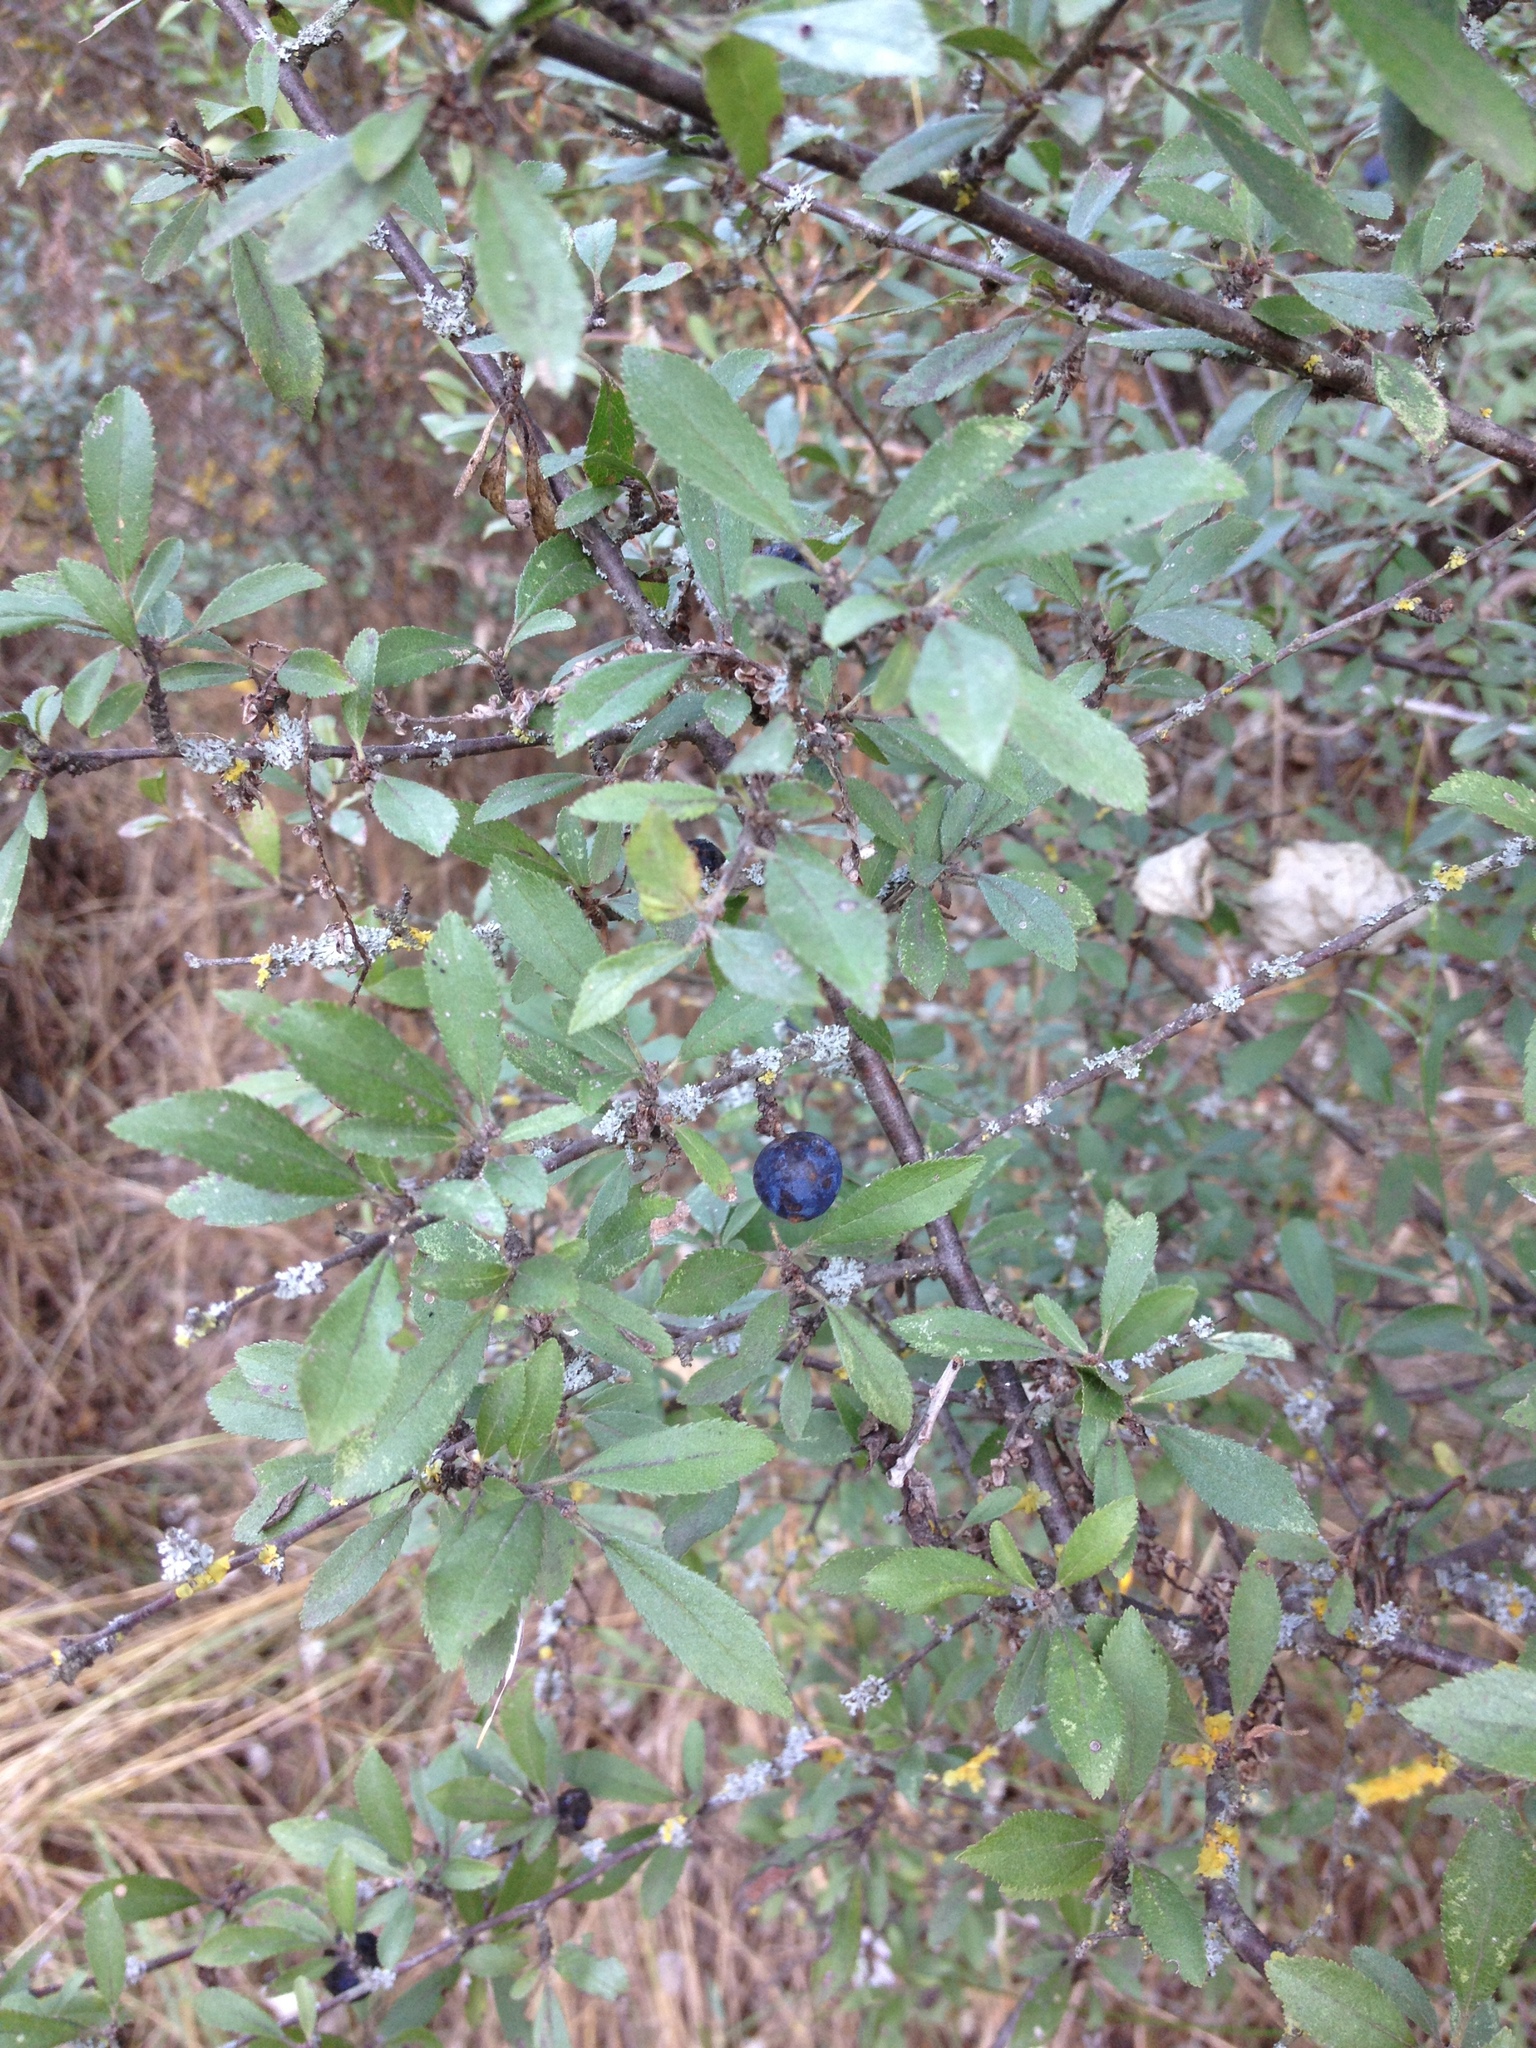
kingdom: Plantae
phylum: Tracheophyta
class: Magnoliopsida
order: Rosales
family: Rosaceae
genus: Prunus
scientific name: Prunus spinosa
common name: Blackthorn
